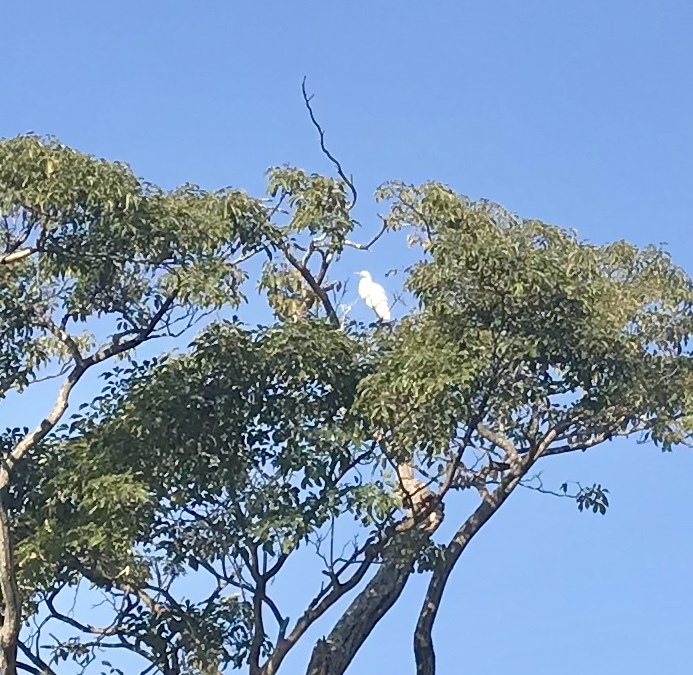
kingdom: Animalia
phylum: Chordata
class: Aves
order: Pelecaniformes
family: Ardeidae
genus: Ardea
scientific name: Ardea alba
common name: Great egret
